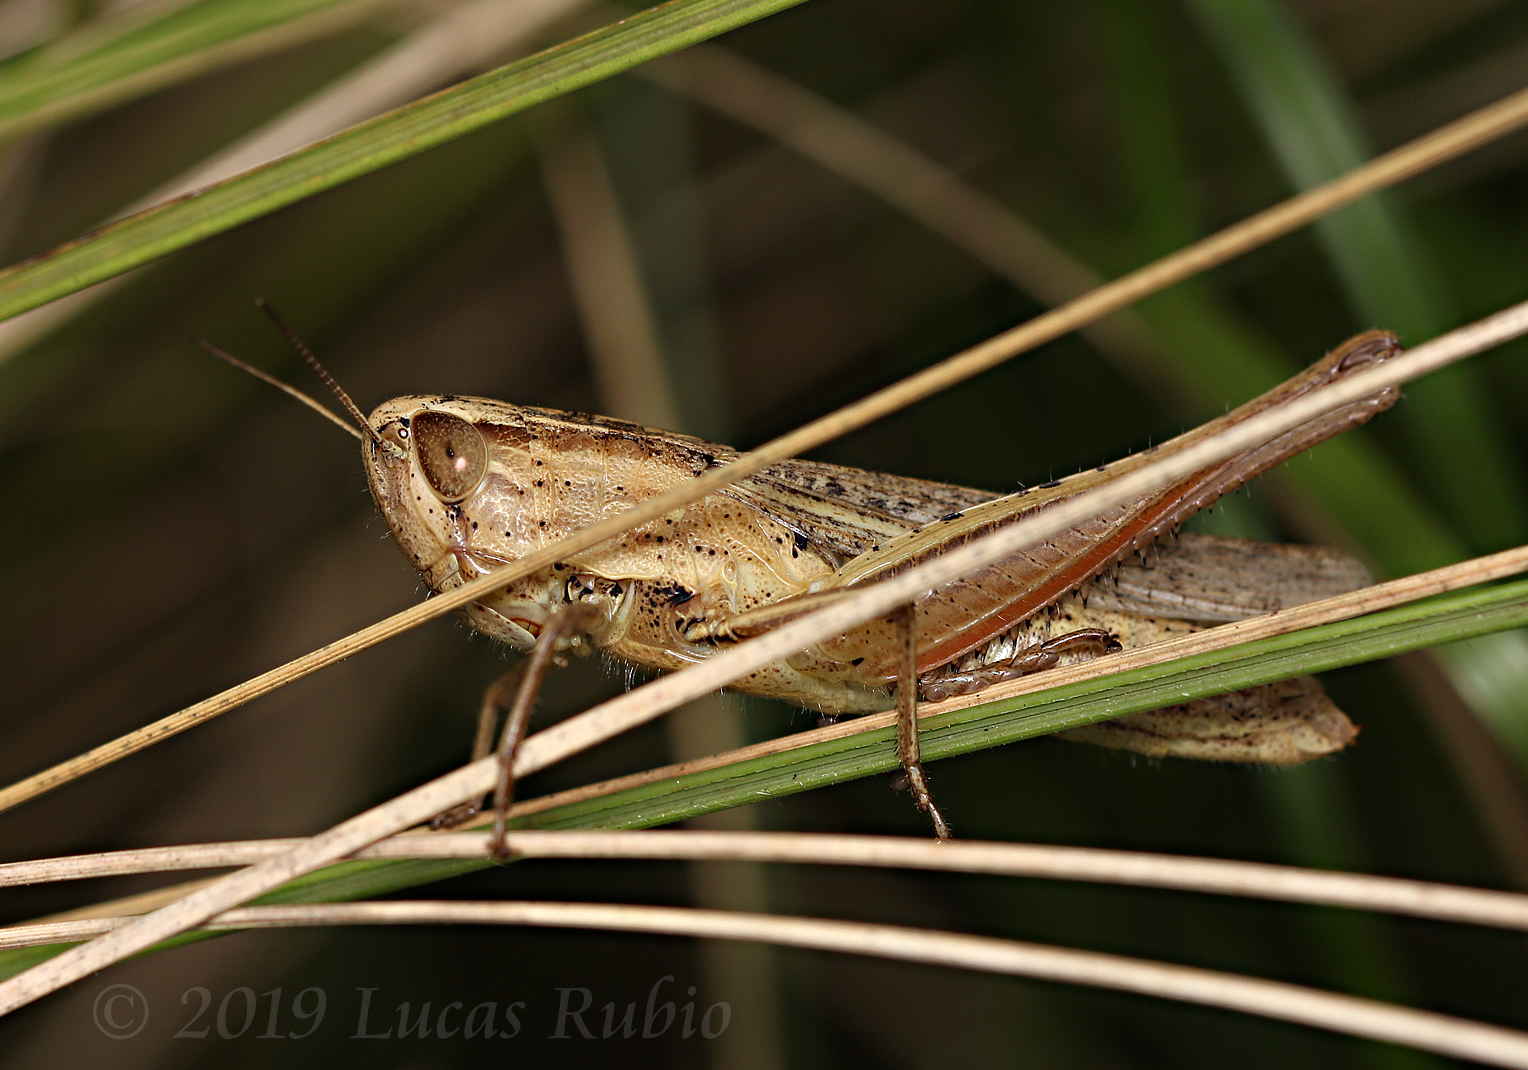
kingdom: Animalia
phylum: Arthropoda
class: Insecta
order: Orthoptera
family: Acrididae
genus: Amblytropidia
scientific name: Amblytropidia australis
